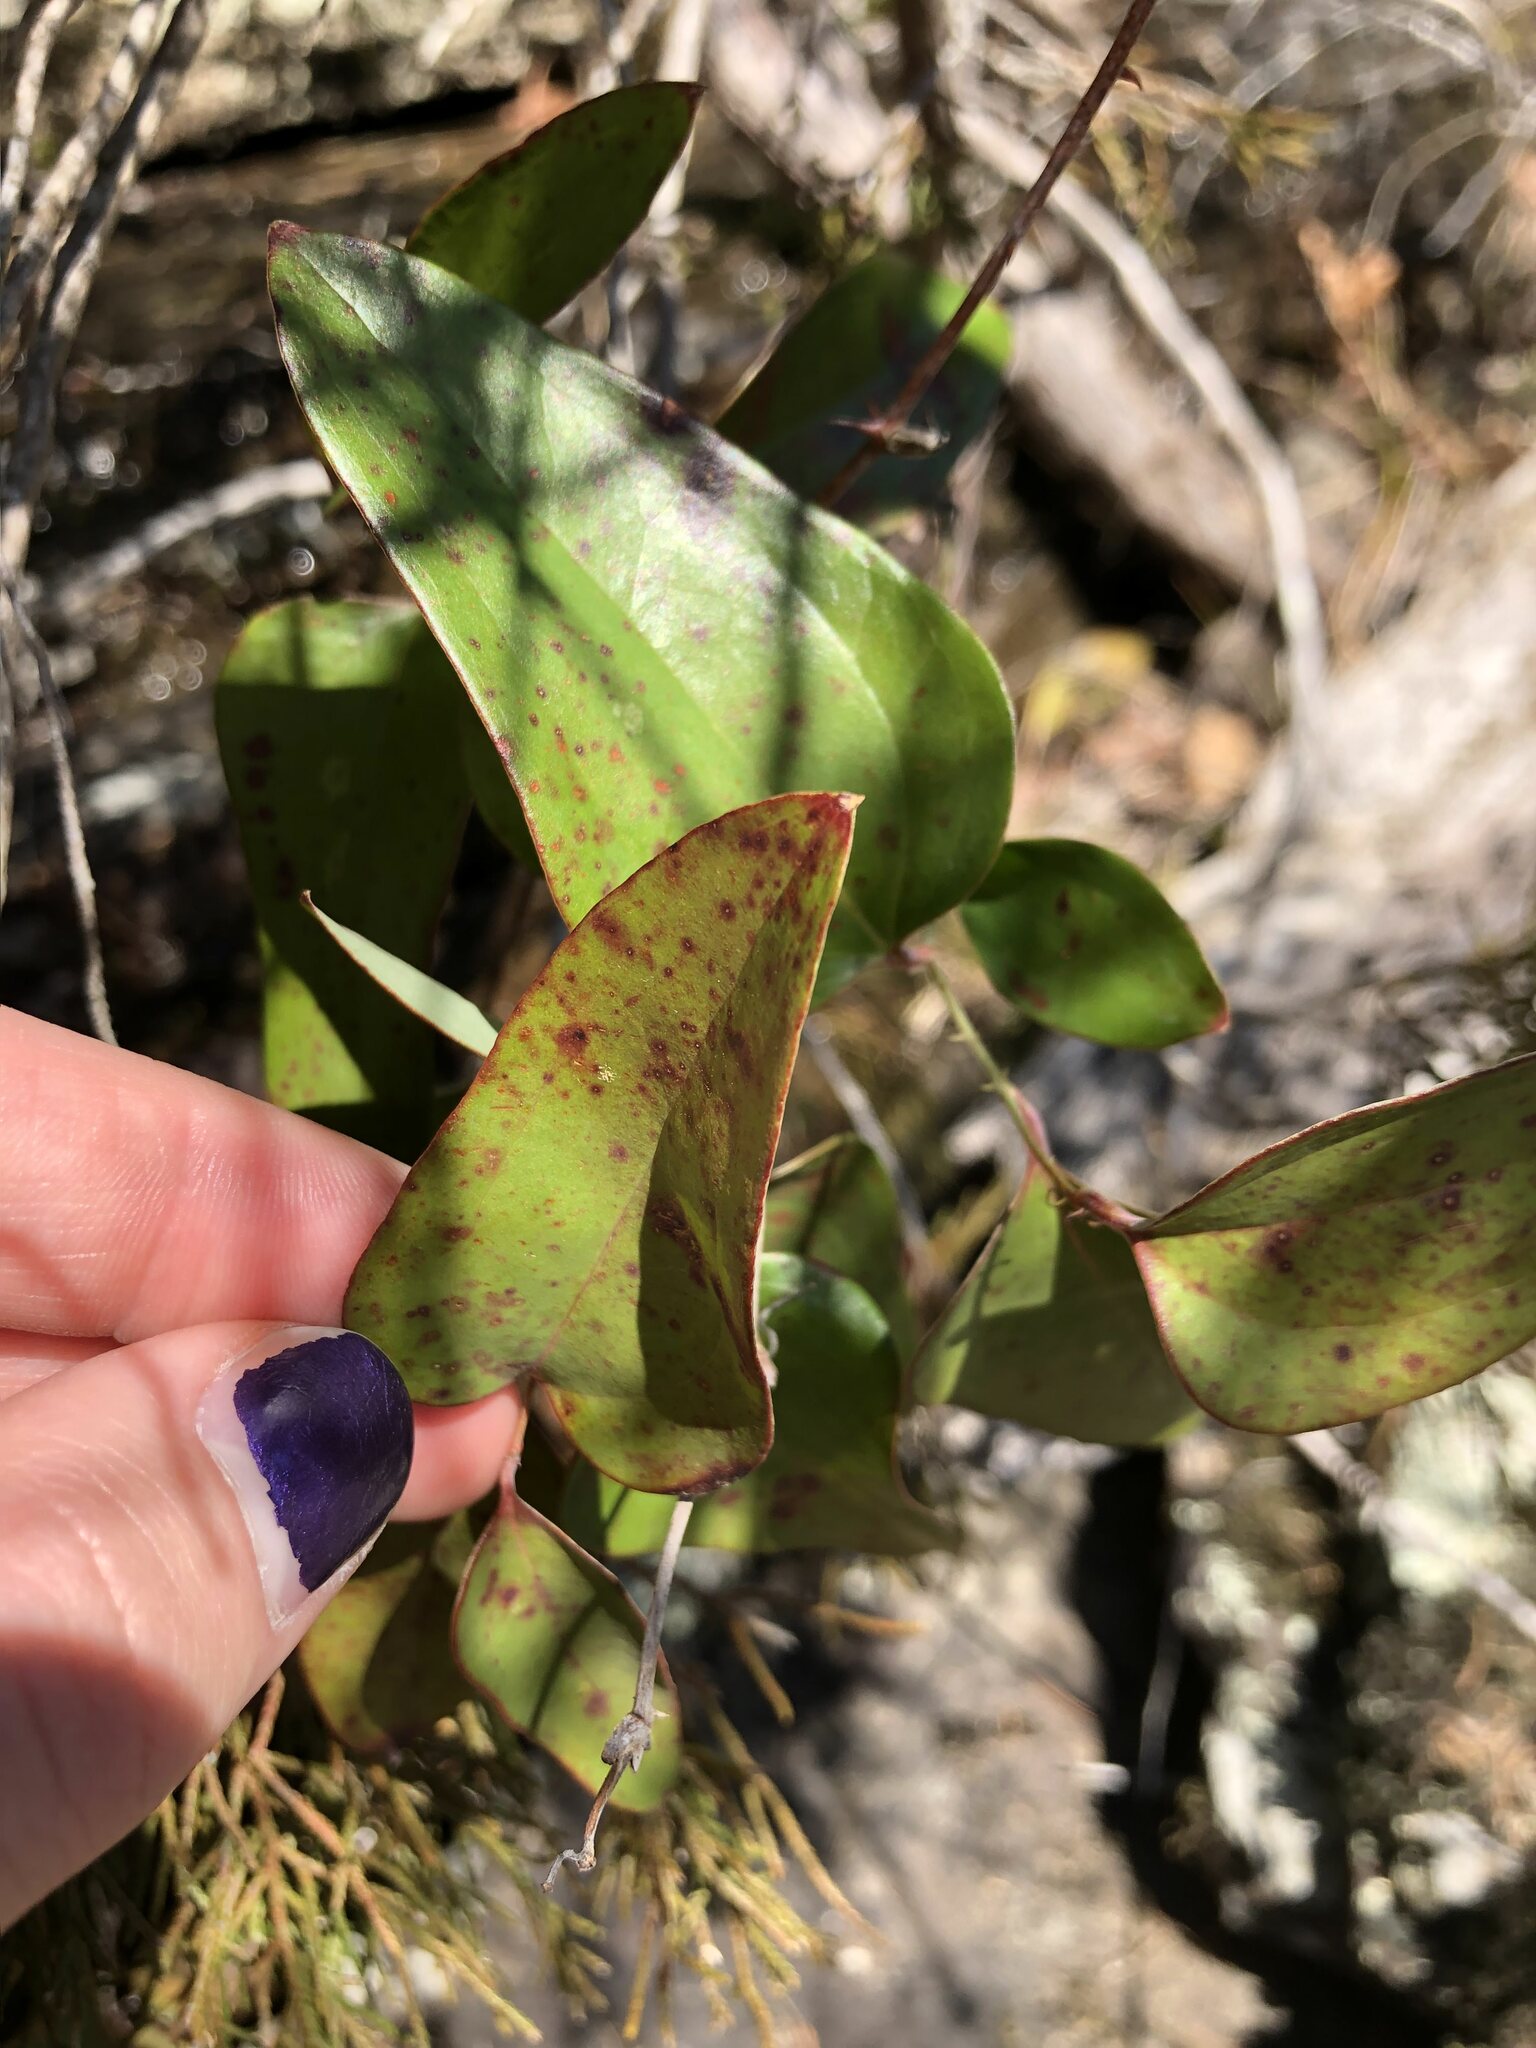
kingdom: Plantae
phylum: Tracheophyta
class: Liliopsida
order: Liliales
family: Smilacaceae
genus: Smilax
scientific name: Smilax glauca
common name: Cat greenbrier
